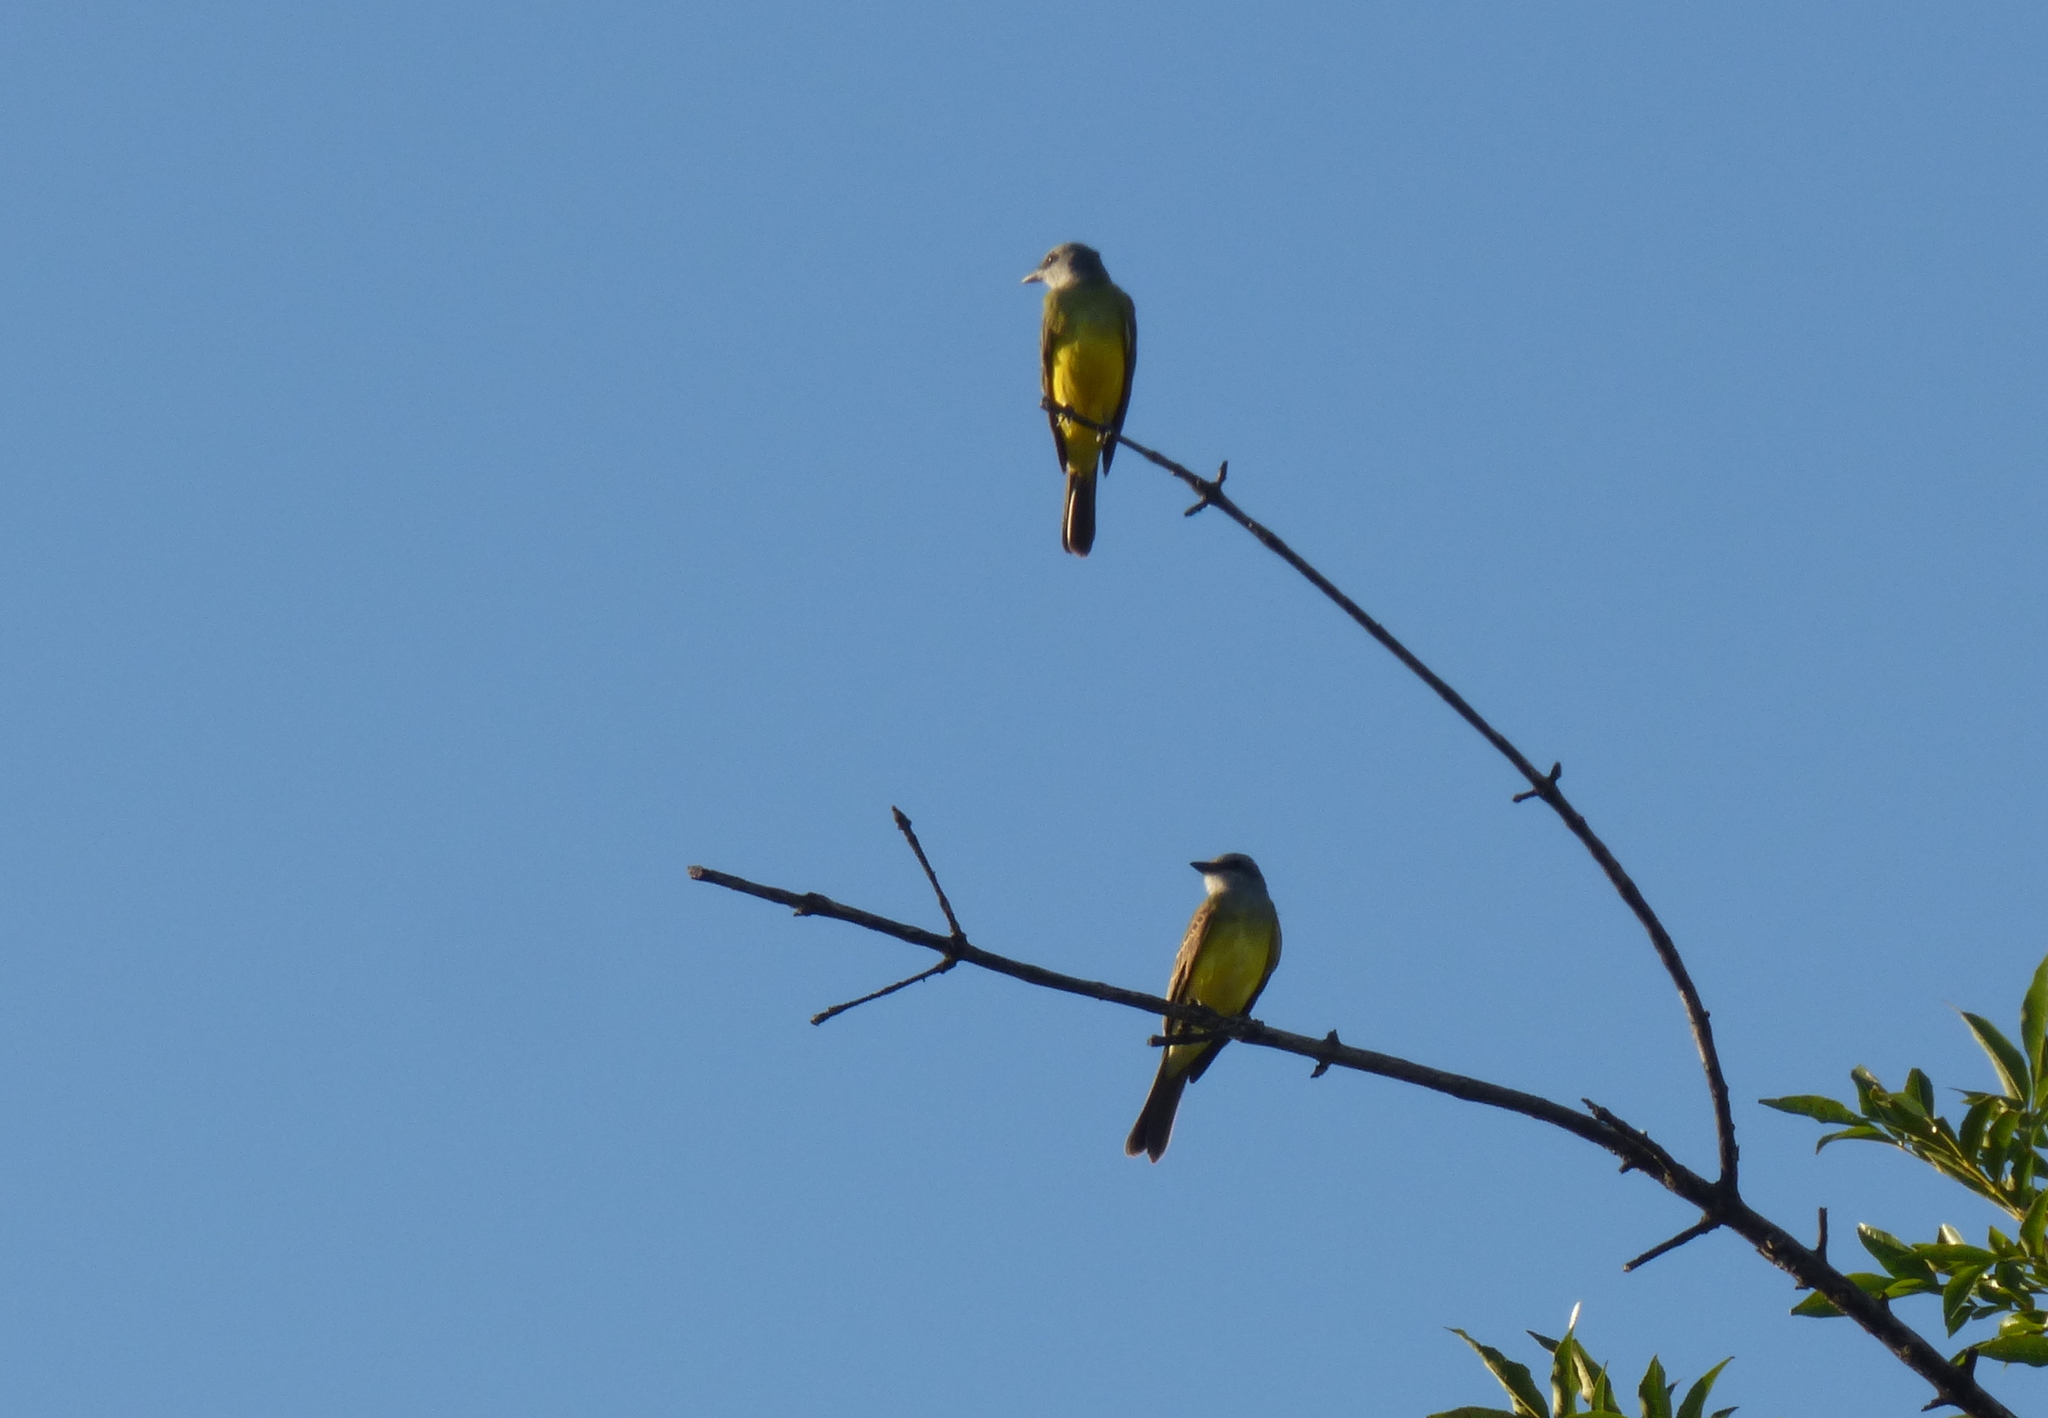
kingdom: Animalia
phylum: Chordata
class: Aves
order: Passeriformes
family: Tyrannidae
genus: Tyrannus
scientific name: Tyrannus melancholicus
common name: Tropical kingbird
